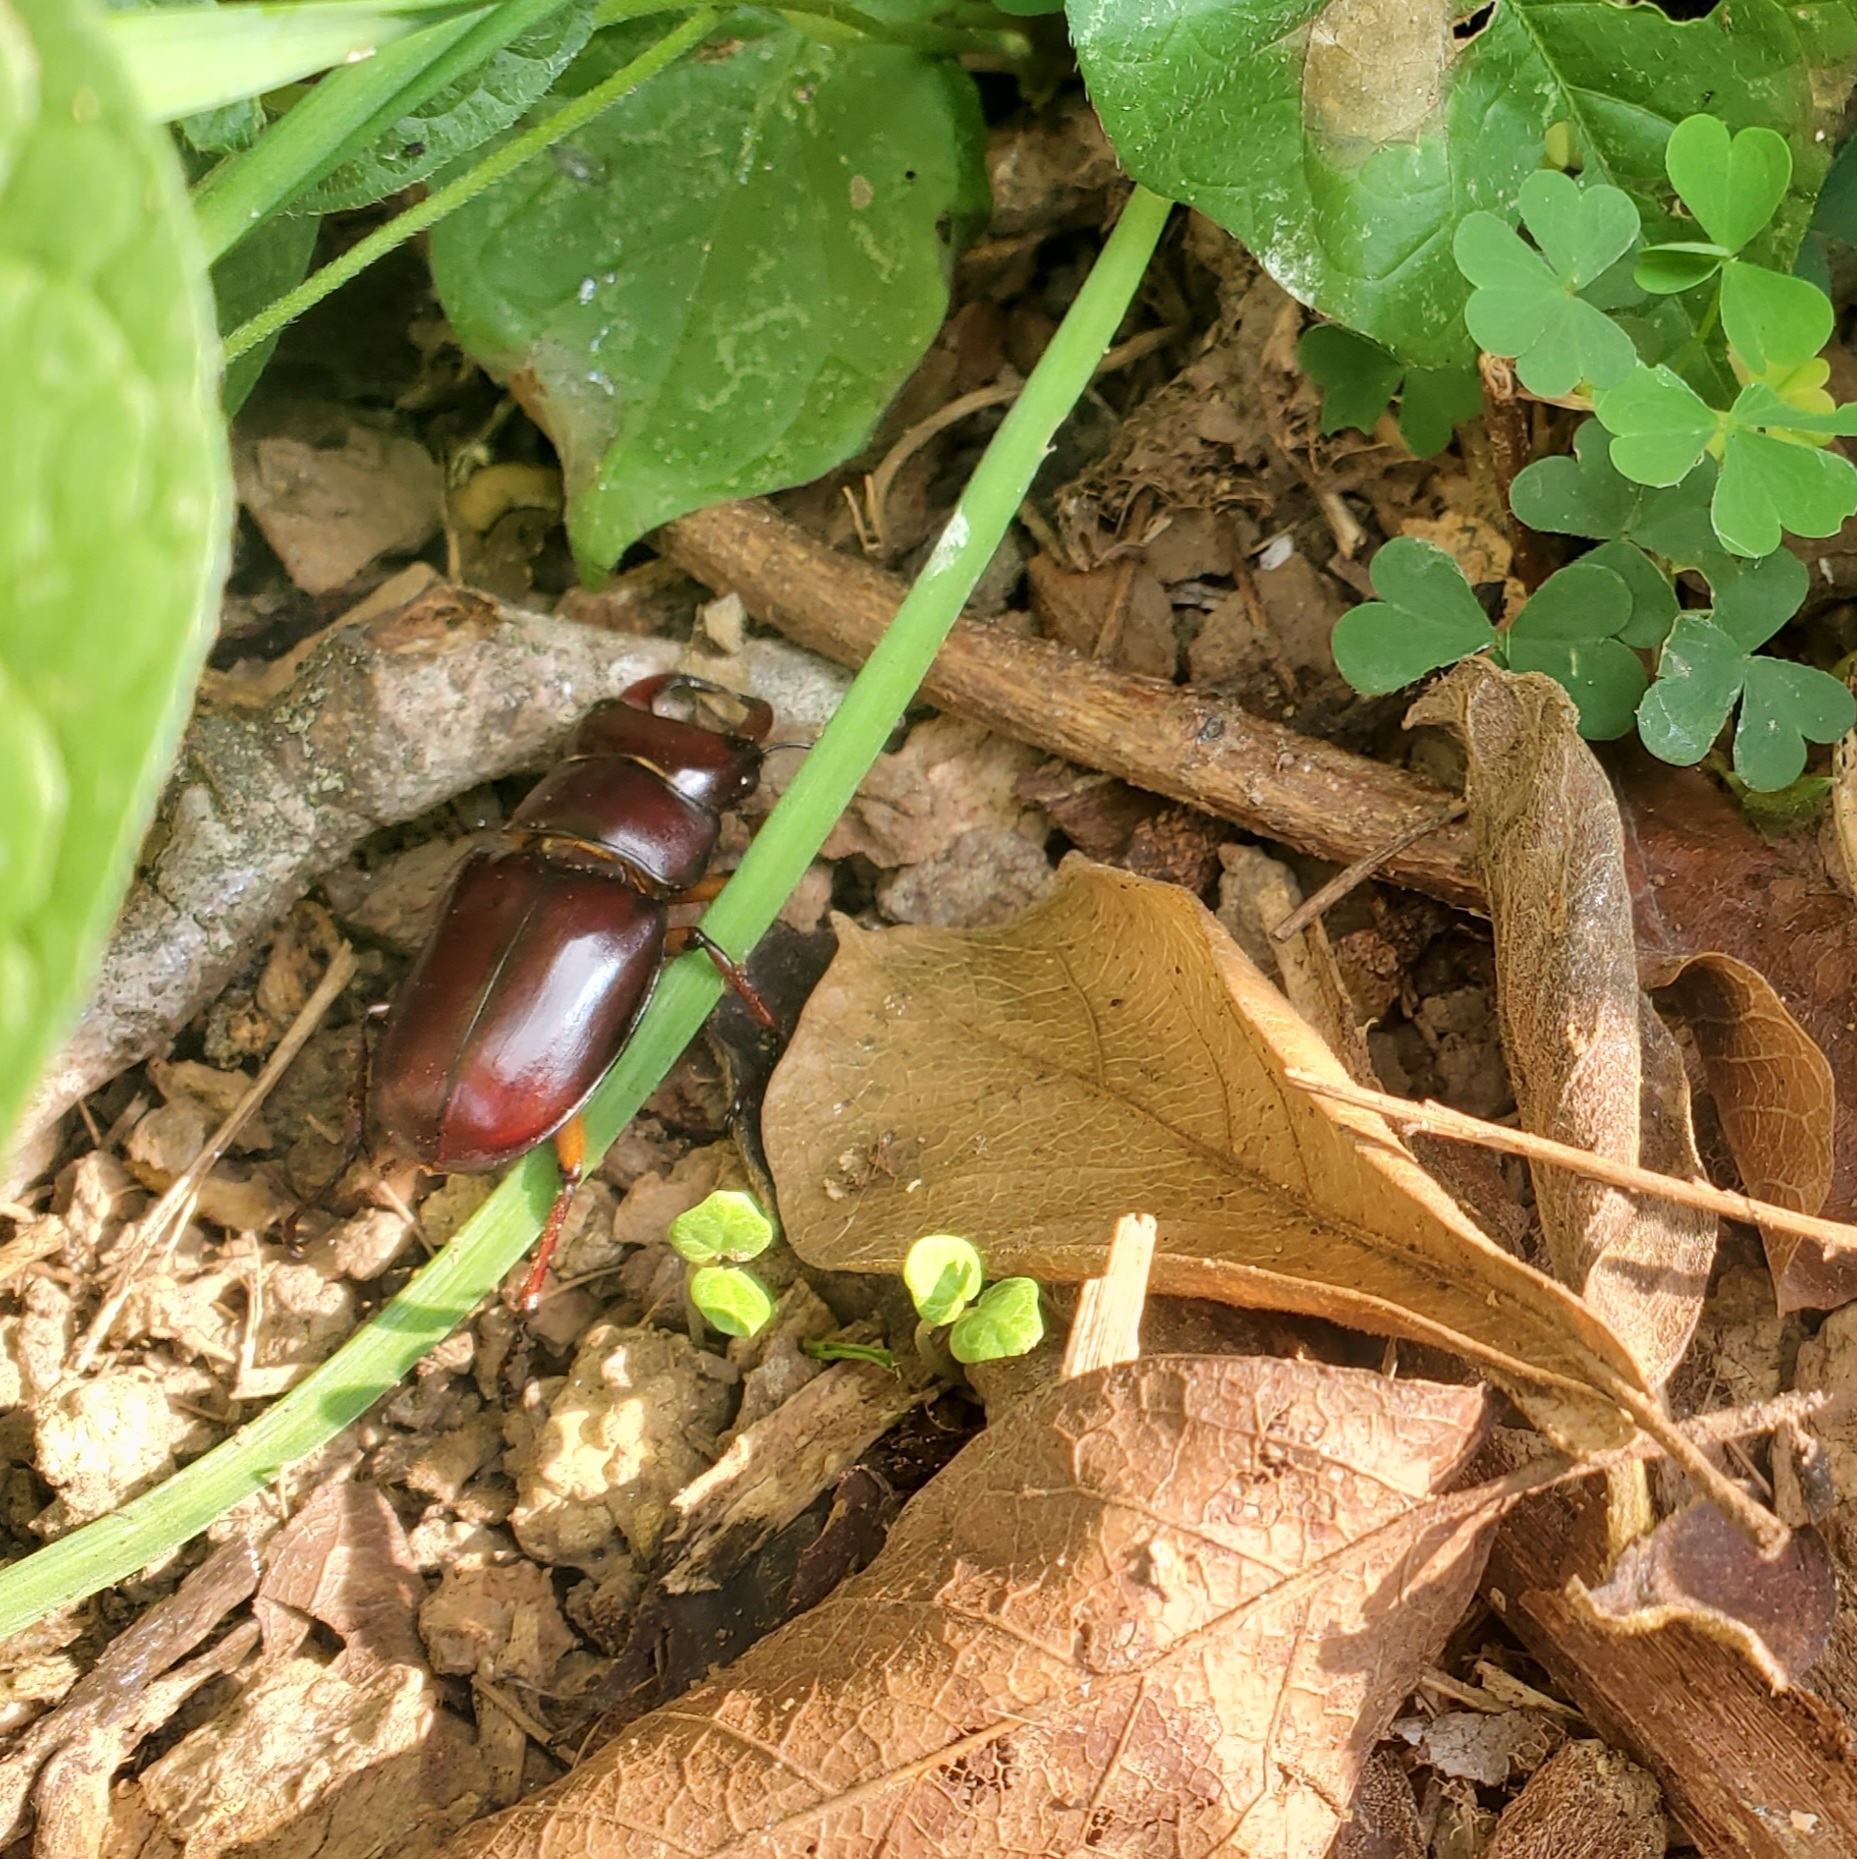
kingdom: Animalia
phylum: Arthropoda
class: Insecta
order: Coleoptera
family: Lucanidae
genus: Lucanus
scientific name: Lucanus capreolus
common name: Stag beetle
